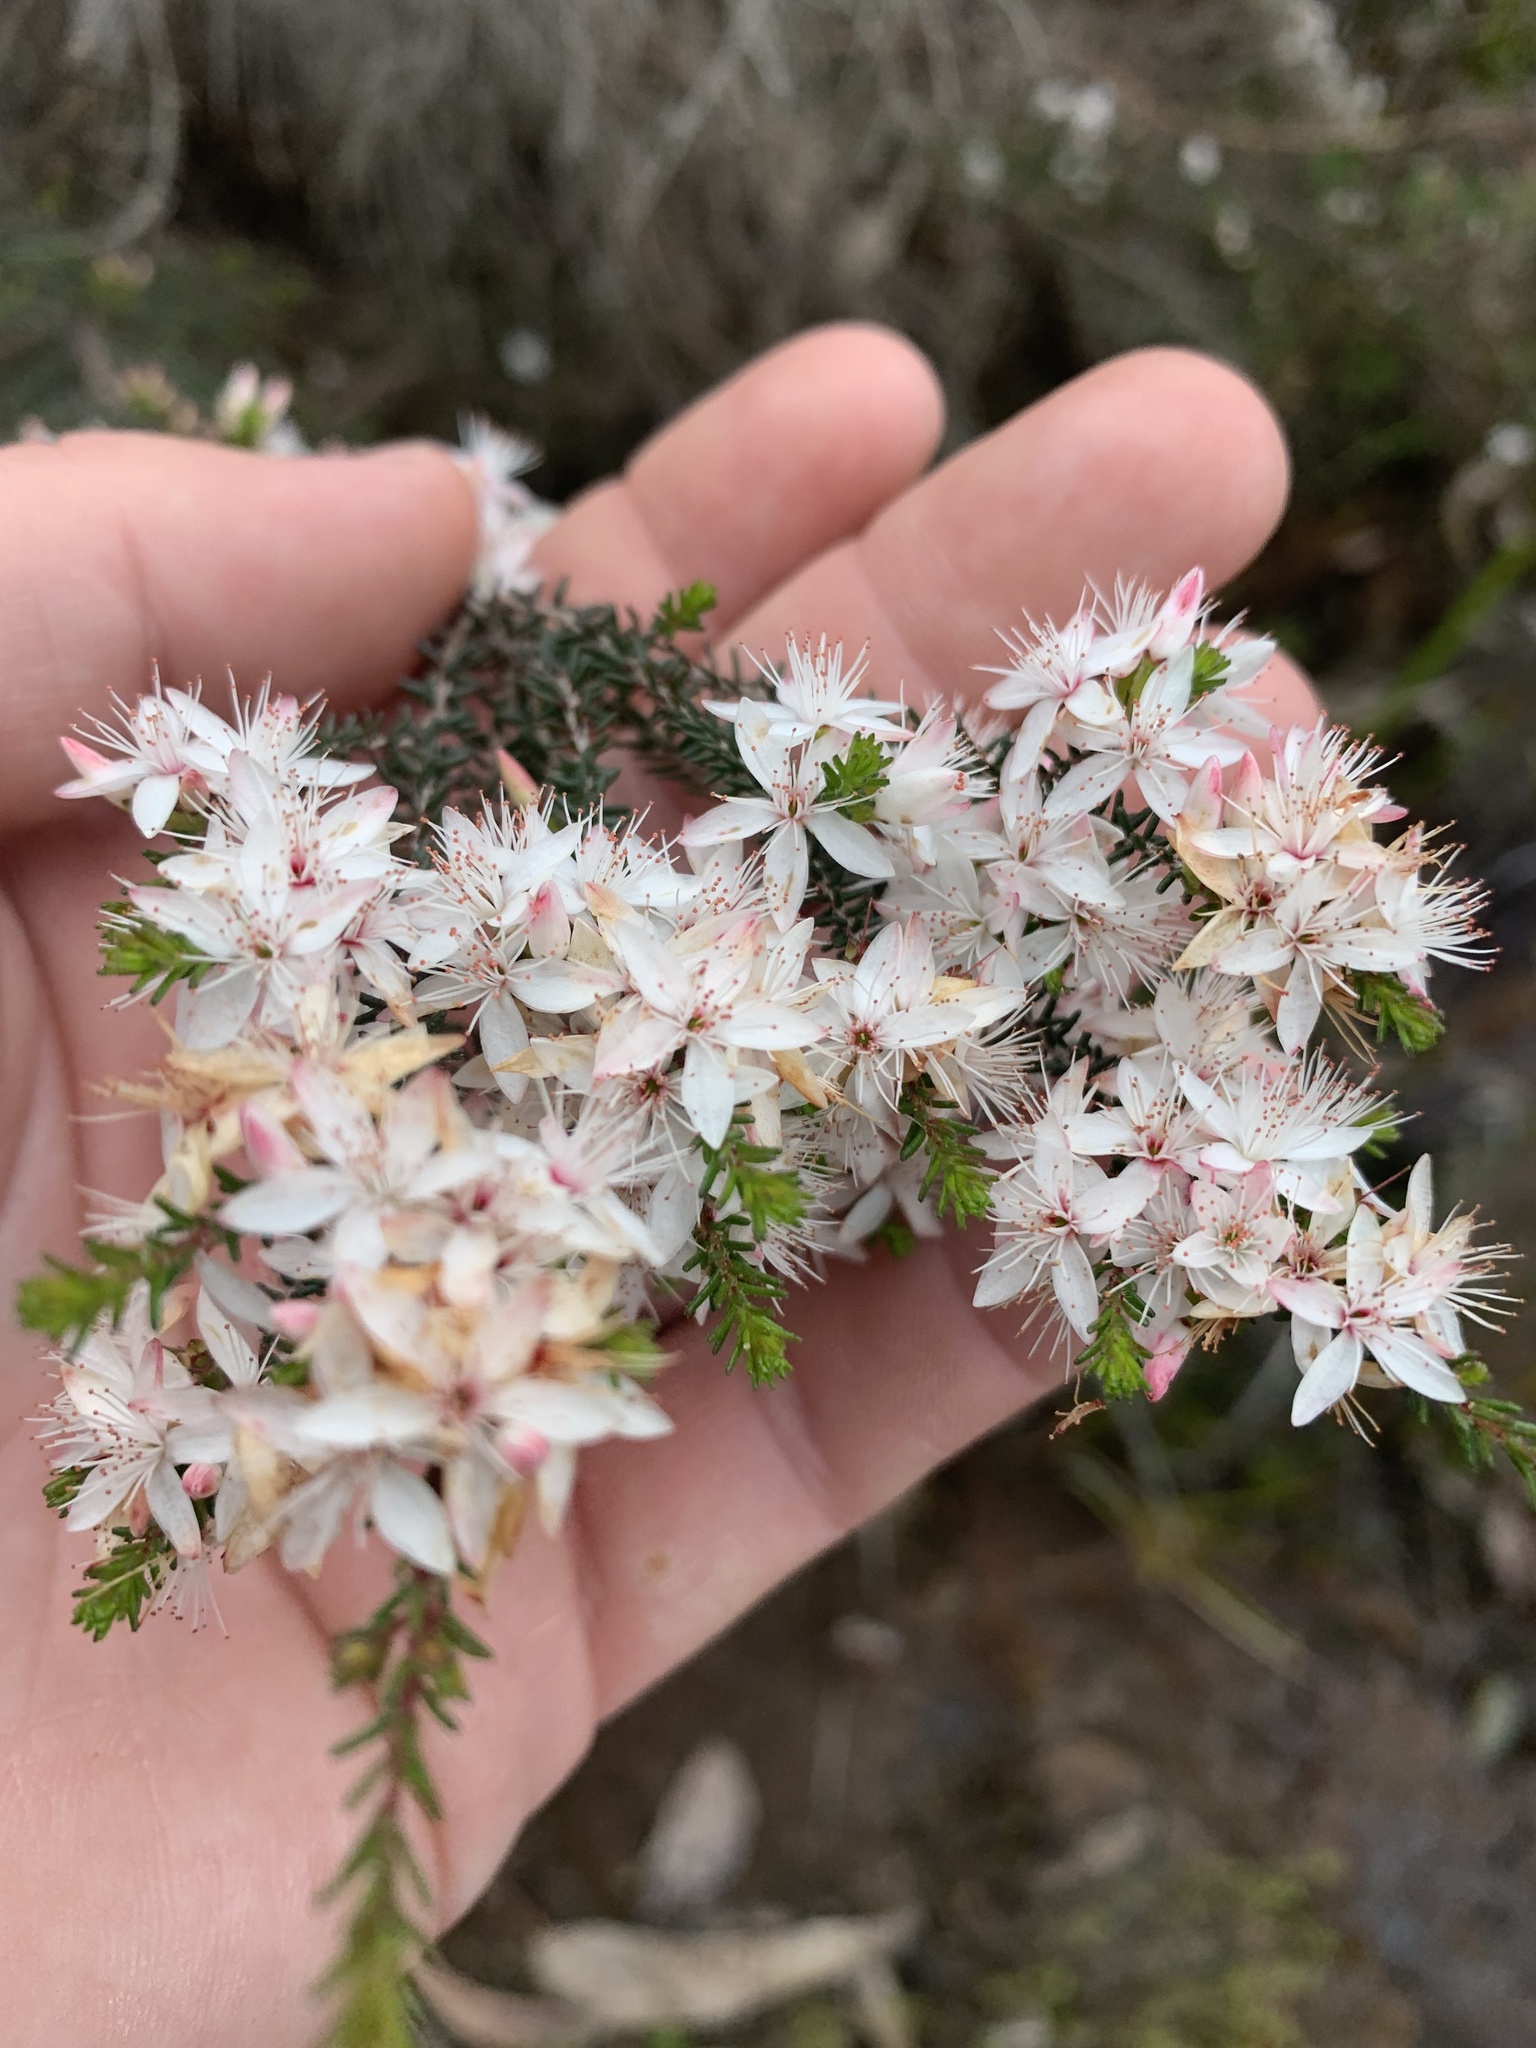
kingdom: Plantae
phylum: Tracheophyta
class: Magnoliopsida
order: Myrtales
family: Myrtaceae
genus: Calytrix
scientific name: Calytrix alpestris
